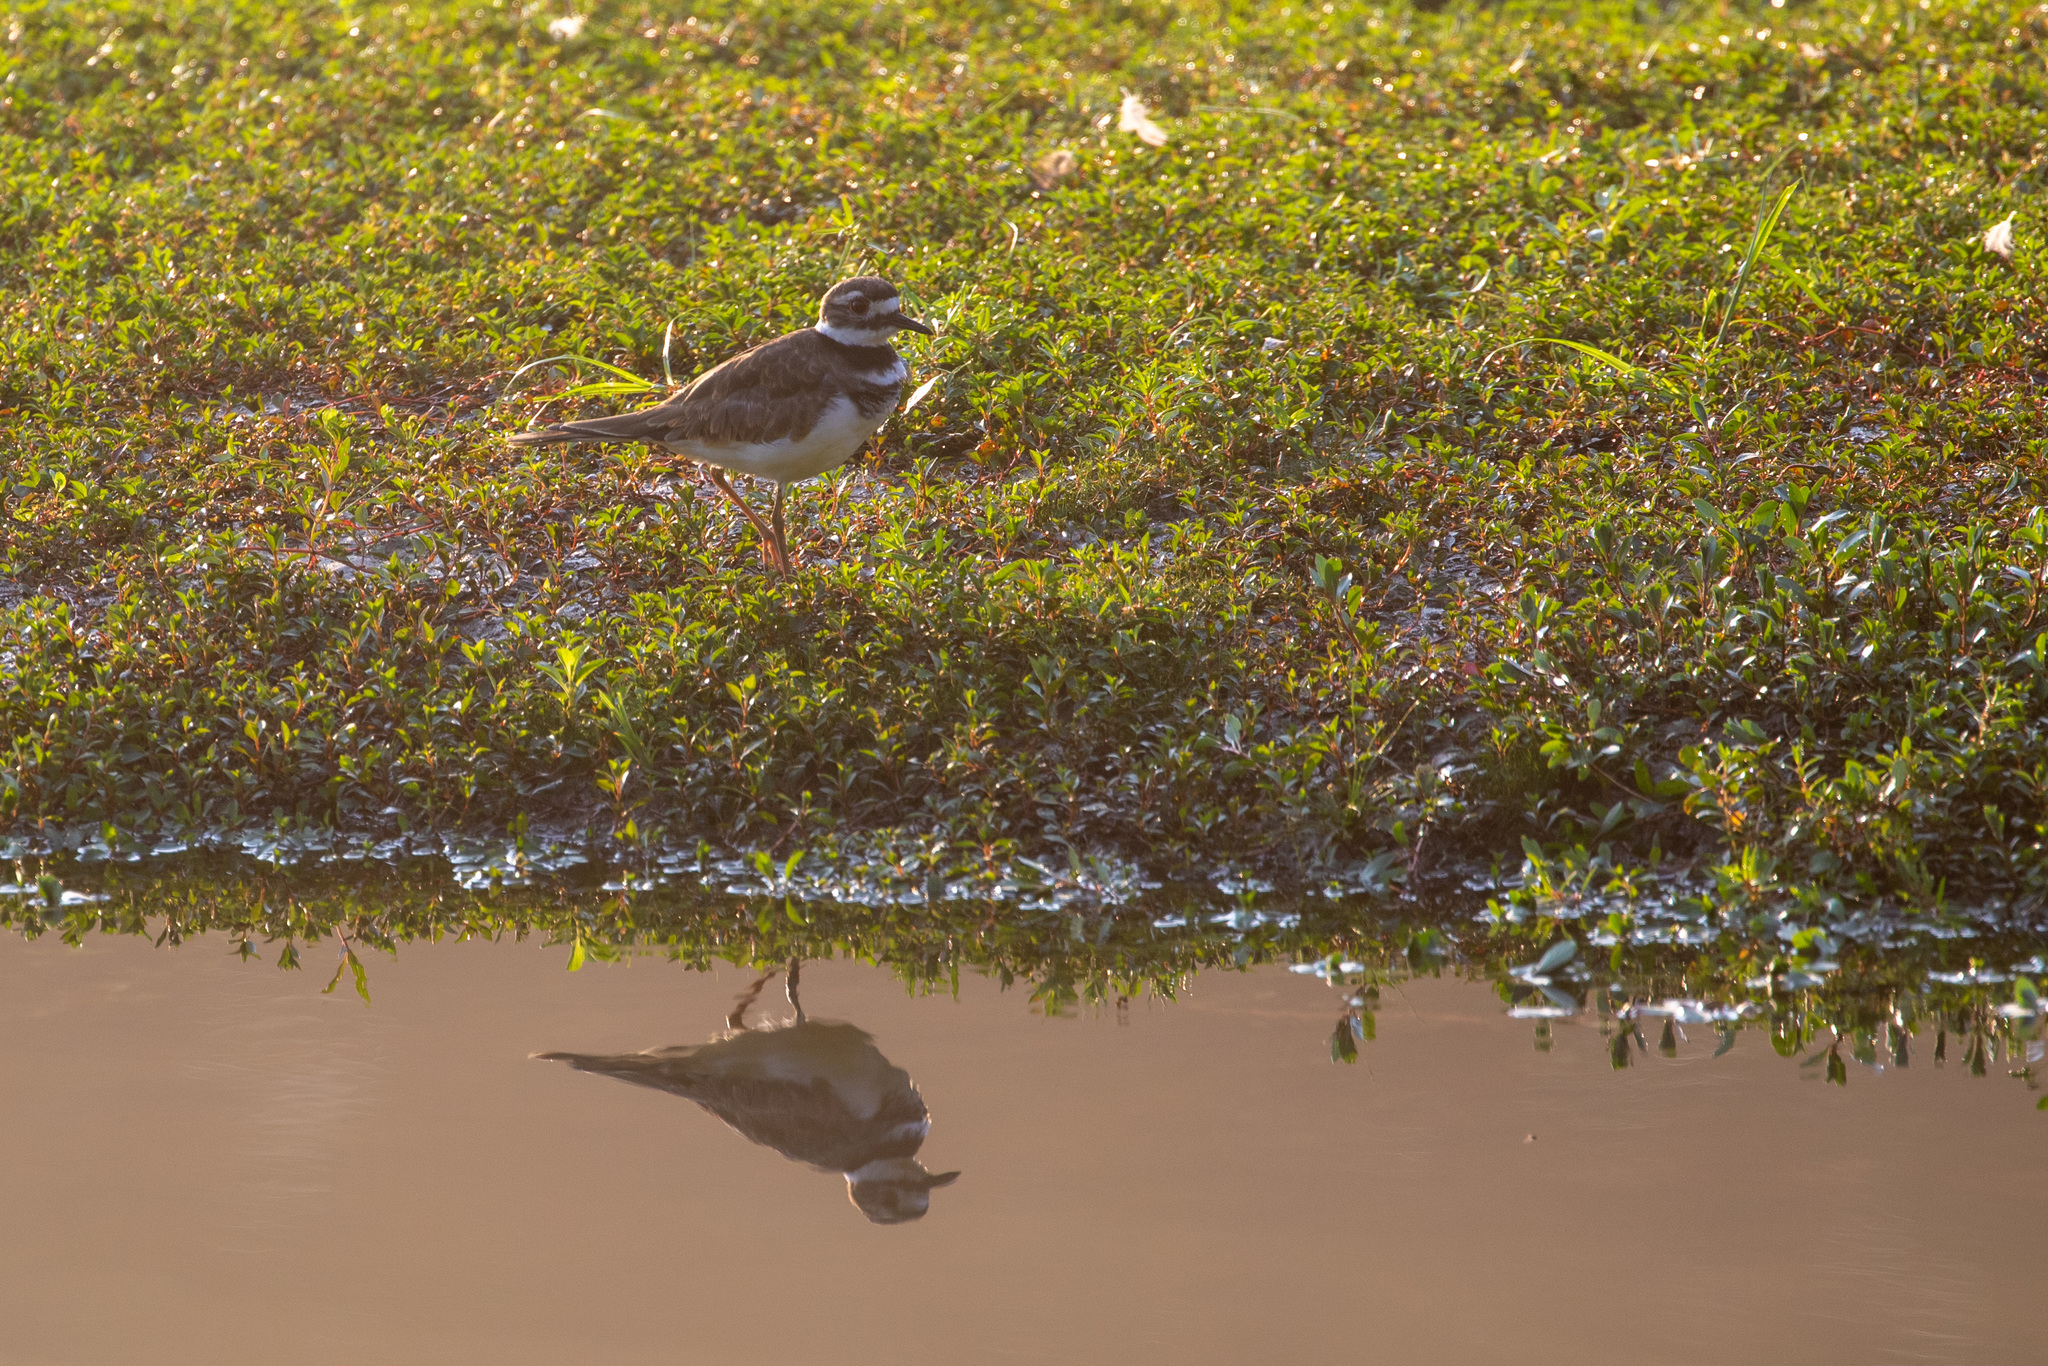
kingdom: Animalia
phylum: Chordata
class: Aves
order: Charadriiformes
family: Charadriidae
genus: Charadrius
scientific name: Charadrius vociferus
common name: Killdeer
